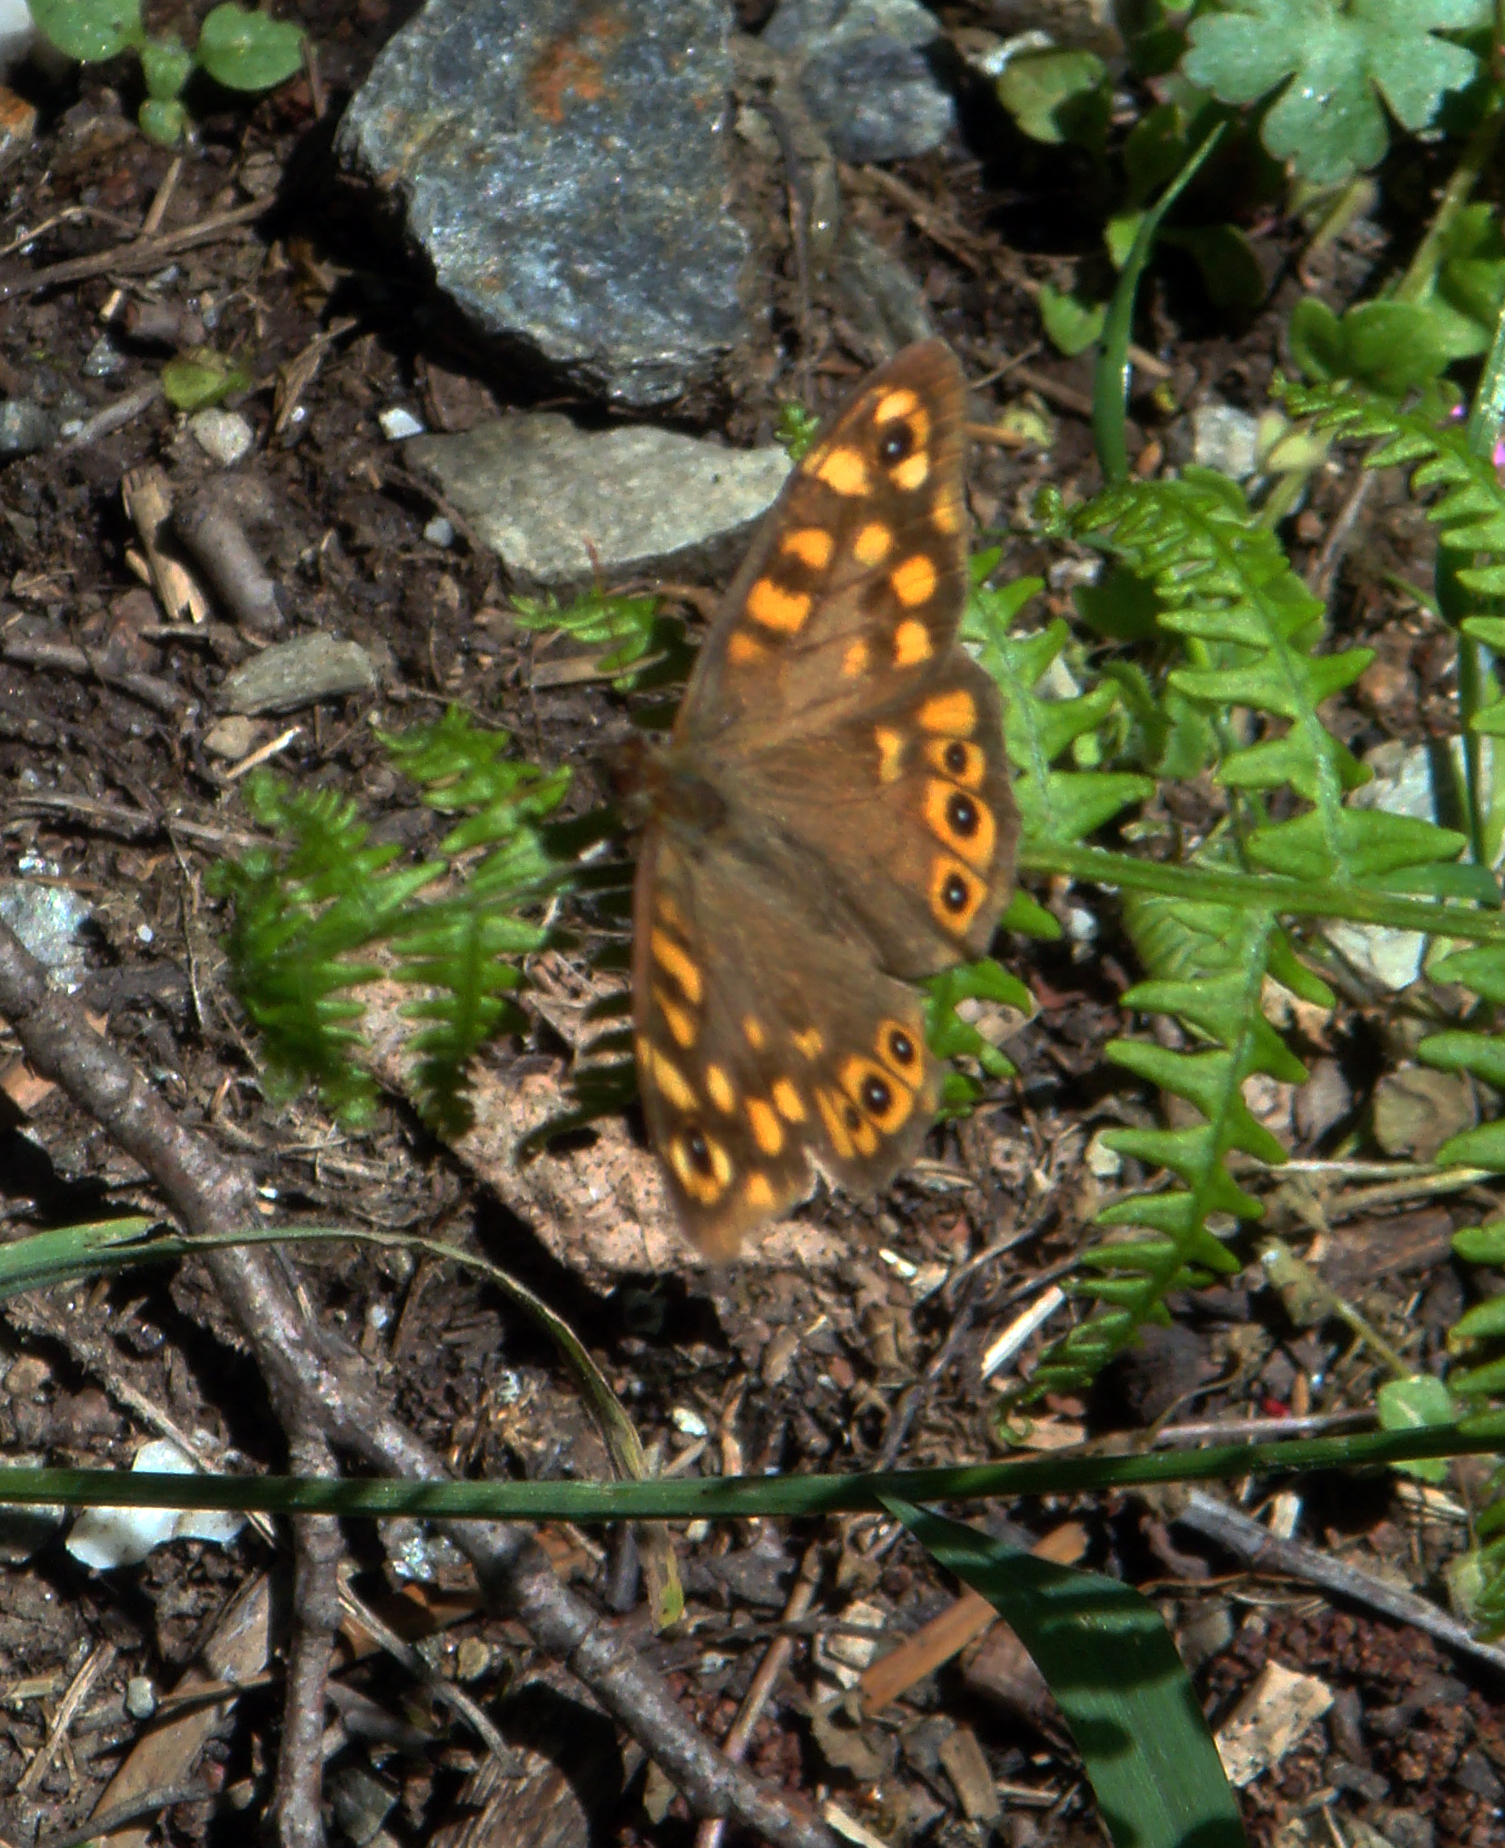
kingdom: Animalia
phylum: Arthropoda
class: Insecta
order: Lepidoptera
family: Nymphalidae
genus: Pararge
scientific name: Pararge aegeria
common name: Speckled wood
